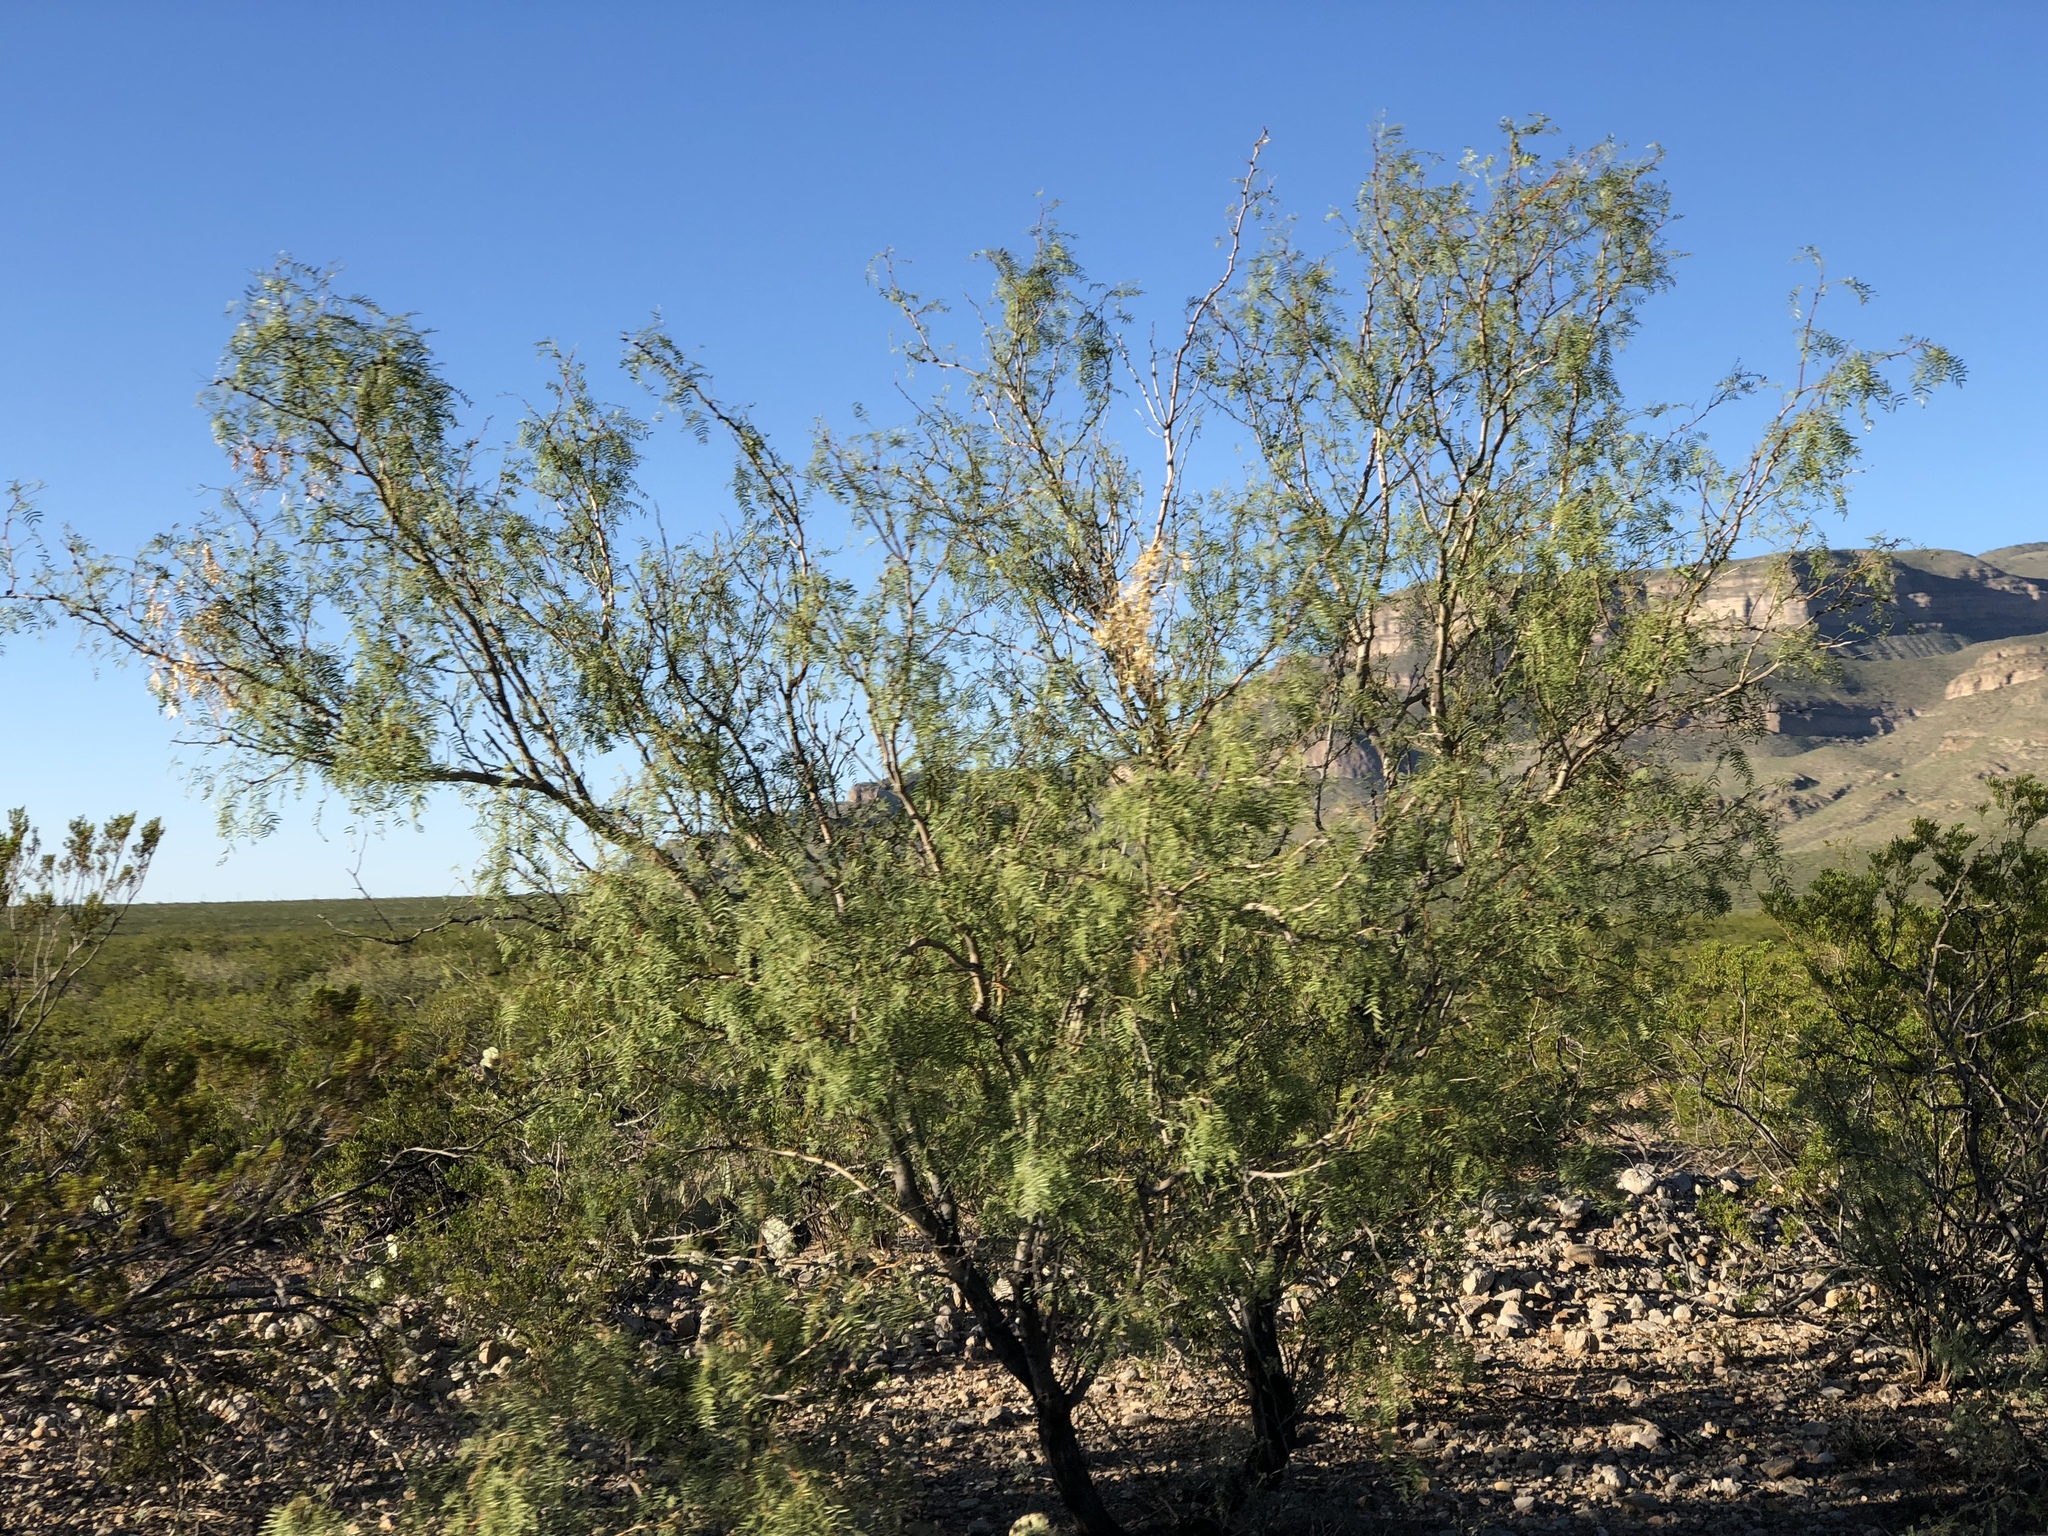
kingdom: Plantae
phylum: Tracheophyta
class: Magnoliopsida
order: Fabales
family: Fabaceae
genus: Prosopis
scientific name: Prosopis glandulosa
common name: Honey mesquite
